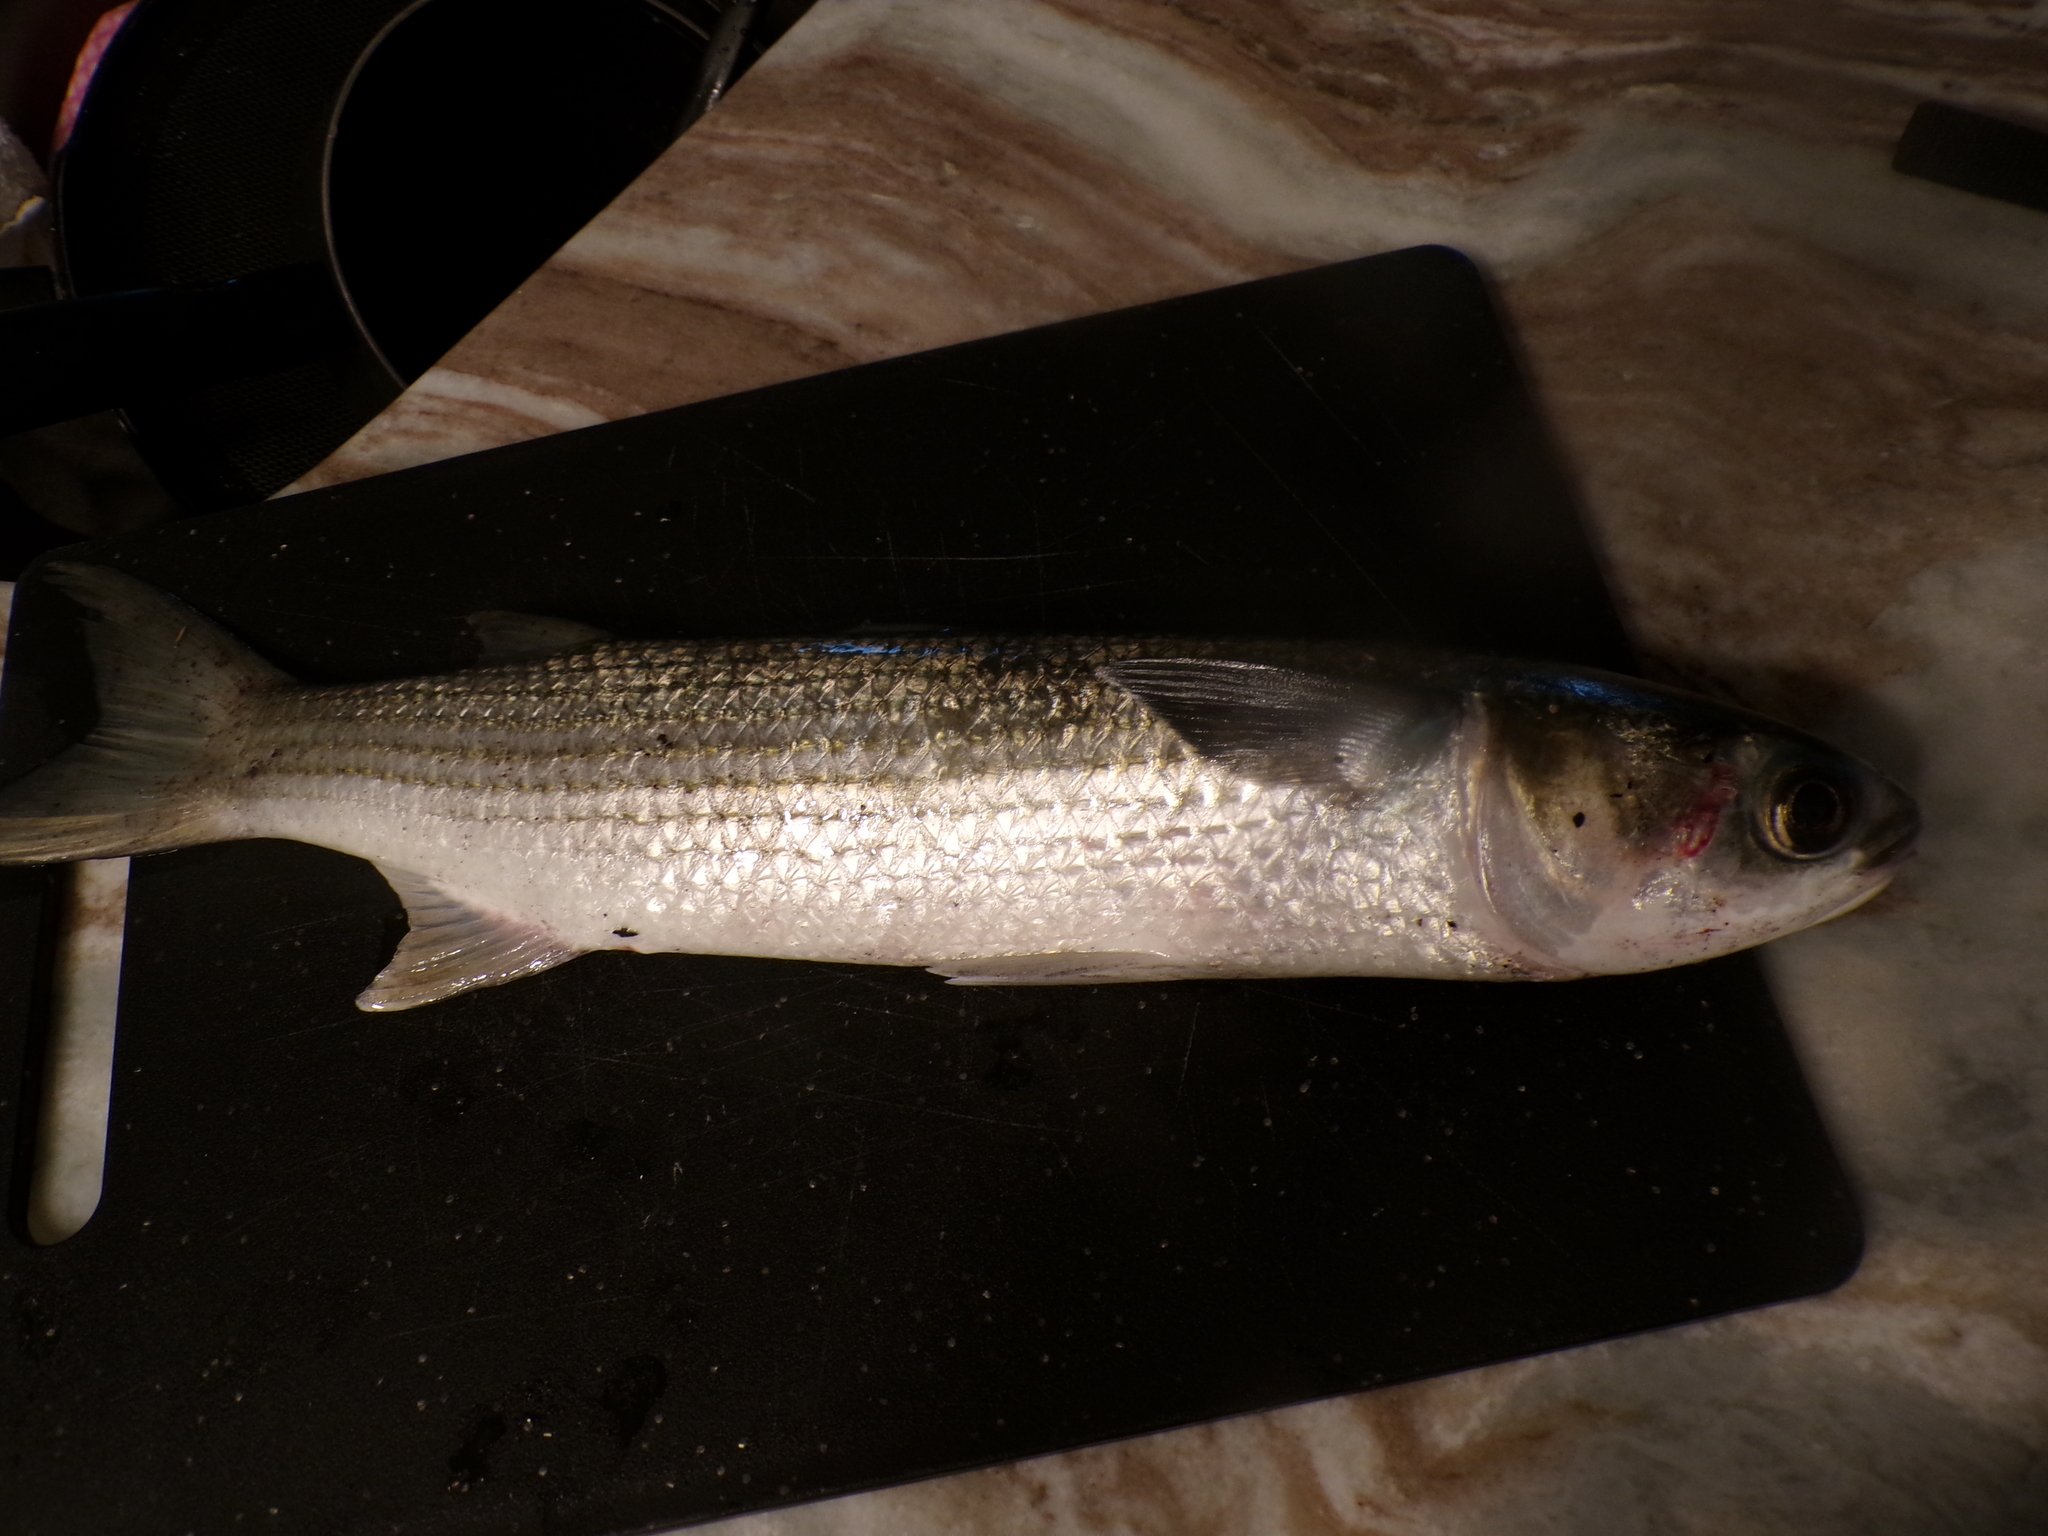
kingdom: Animalia
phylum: Chordata
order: Mugiliformes
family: Mugilidae
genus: Mugil
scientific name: Mugil cephalus
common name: Grey mullet
